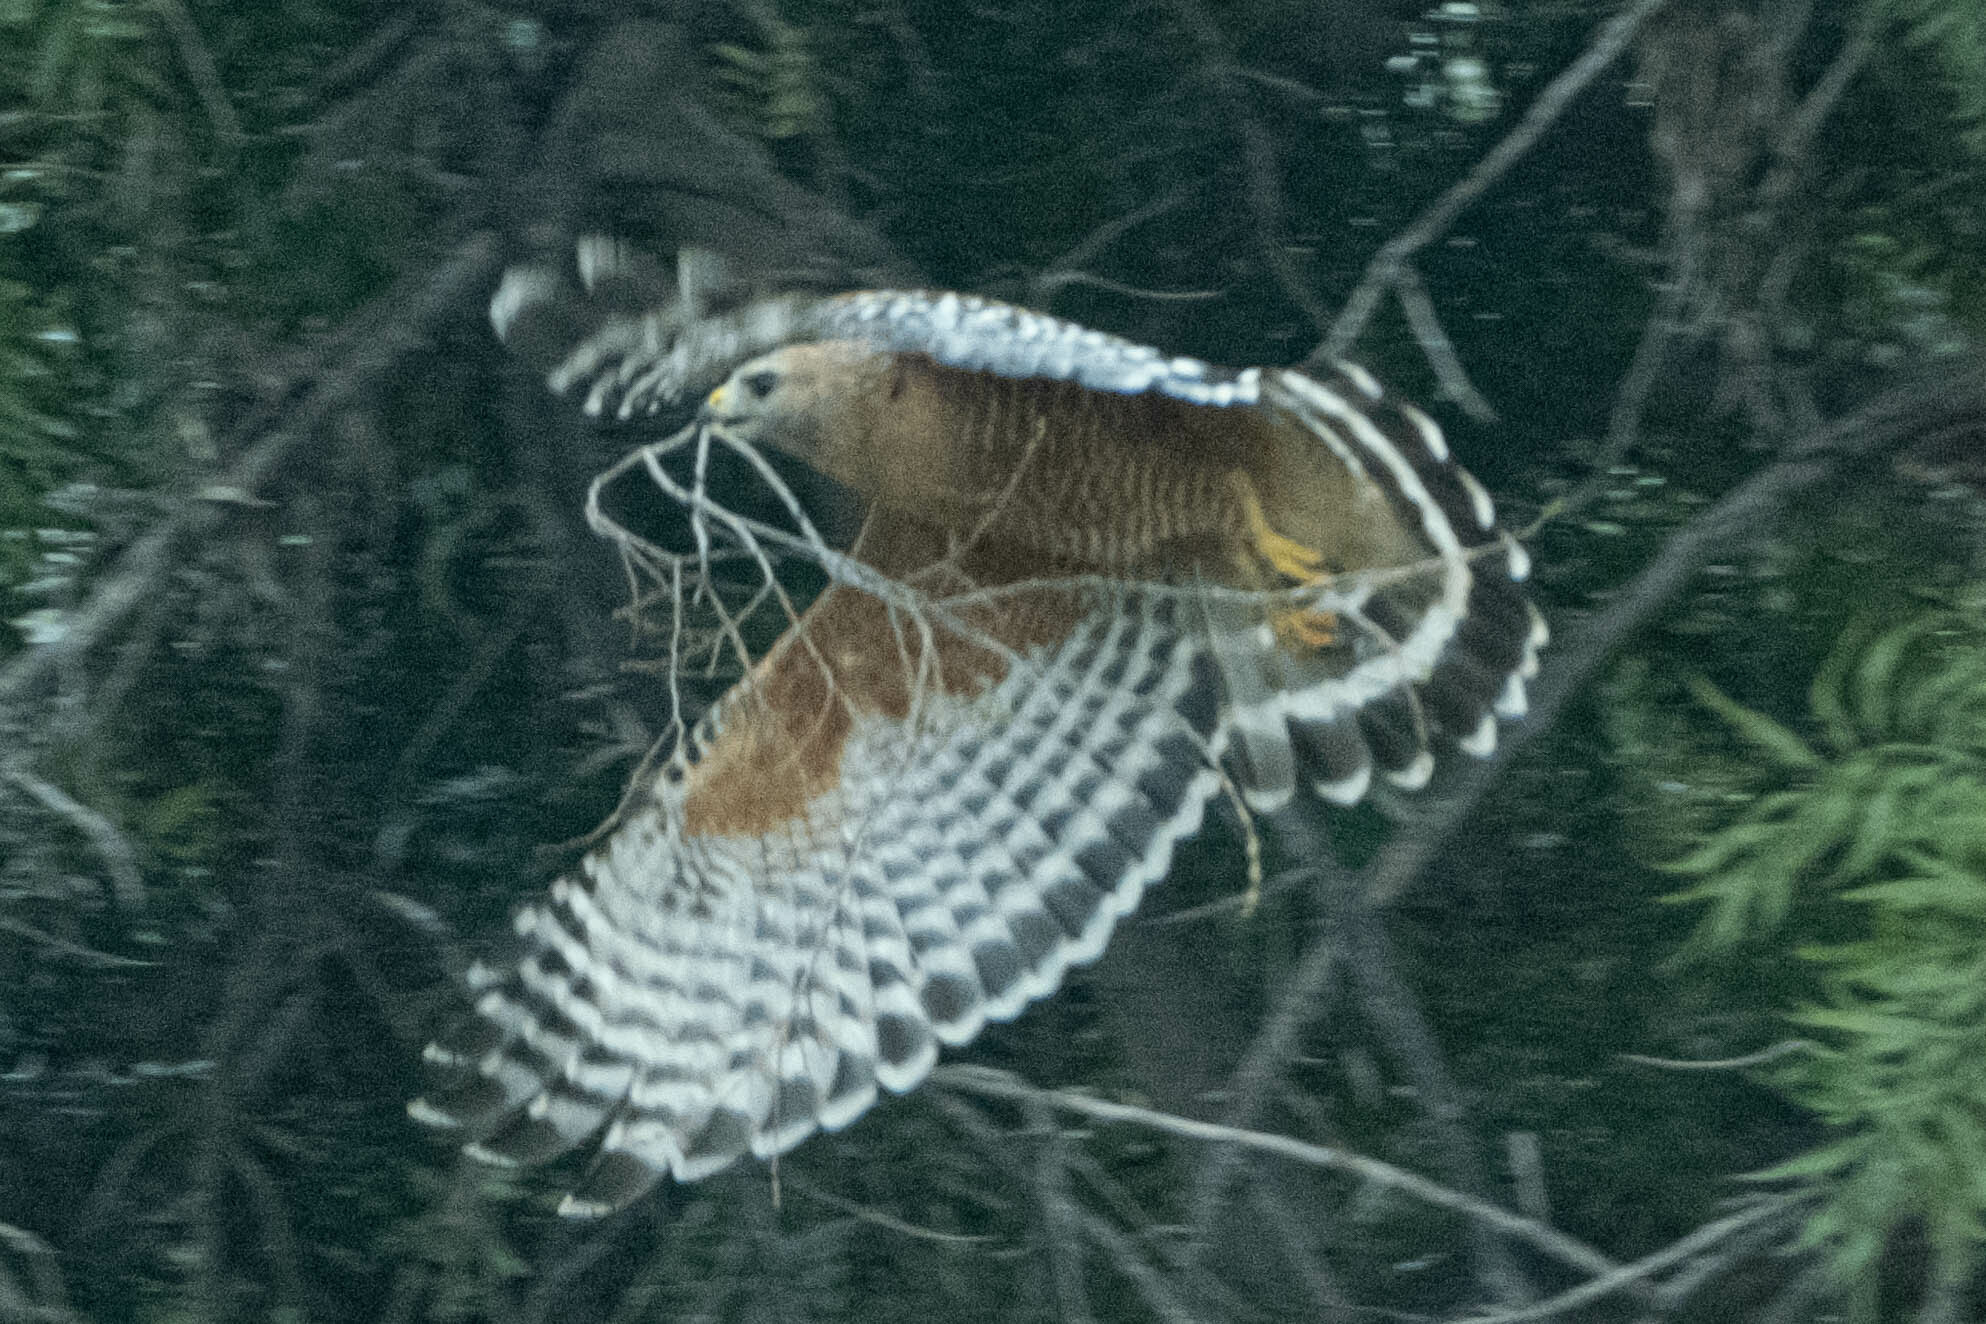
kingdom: Animalia
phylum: Chordata
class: Aves
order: Accipitriformes
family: Accipitridae
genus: Buteo
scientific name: Buteo lineatus
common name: Red-shouldered hawk
